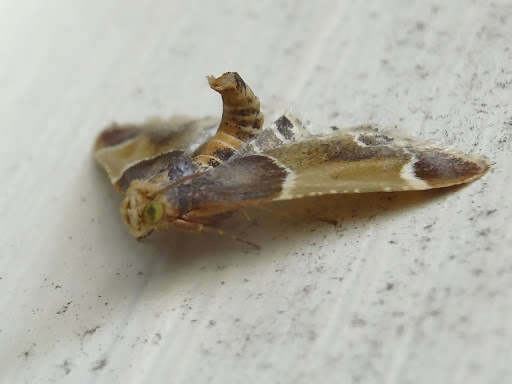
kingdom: Animalia
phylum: Arthropoda
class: Insecta
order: Lepidoptera
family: Pyralidae
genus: Pyralis
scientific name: Pyralis farinalis
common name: Meal moth
